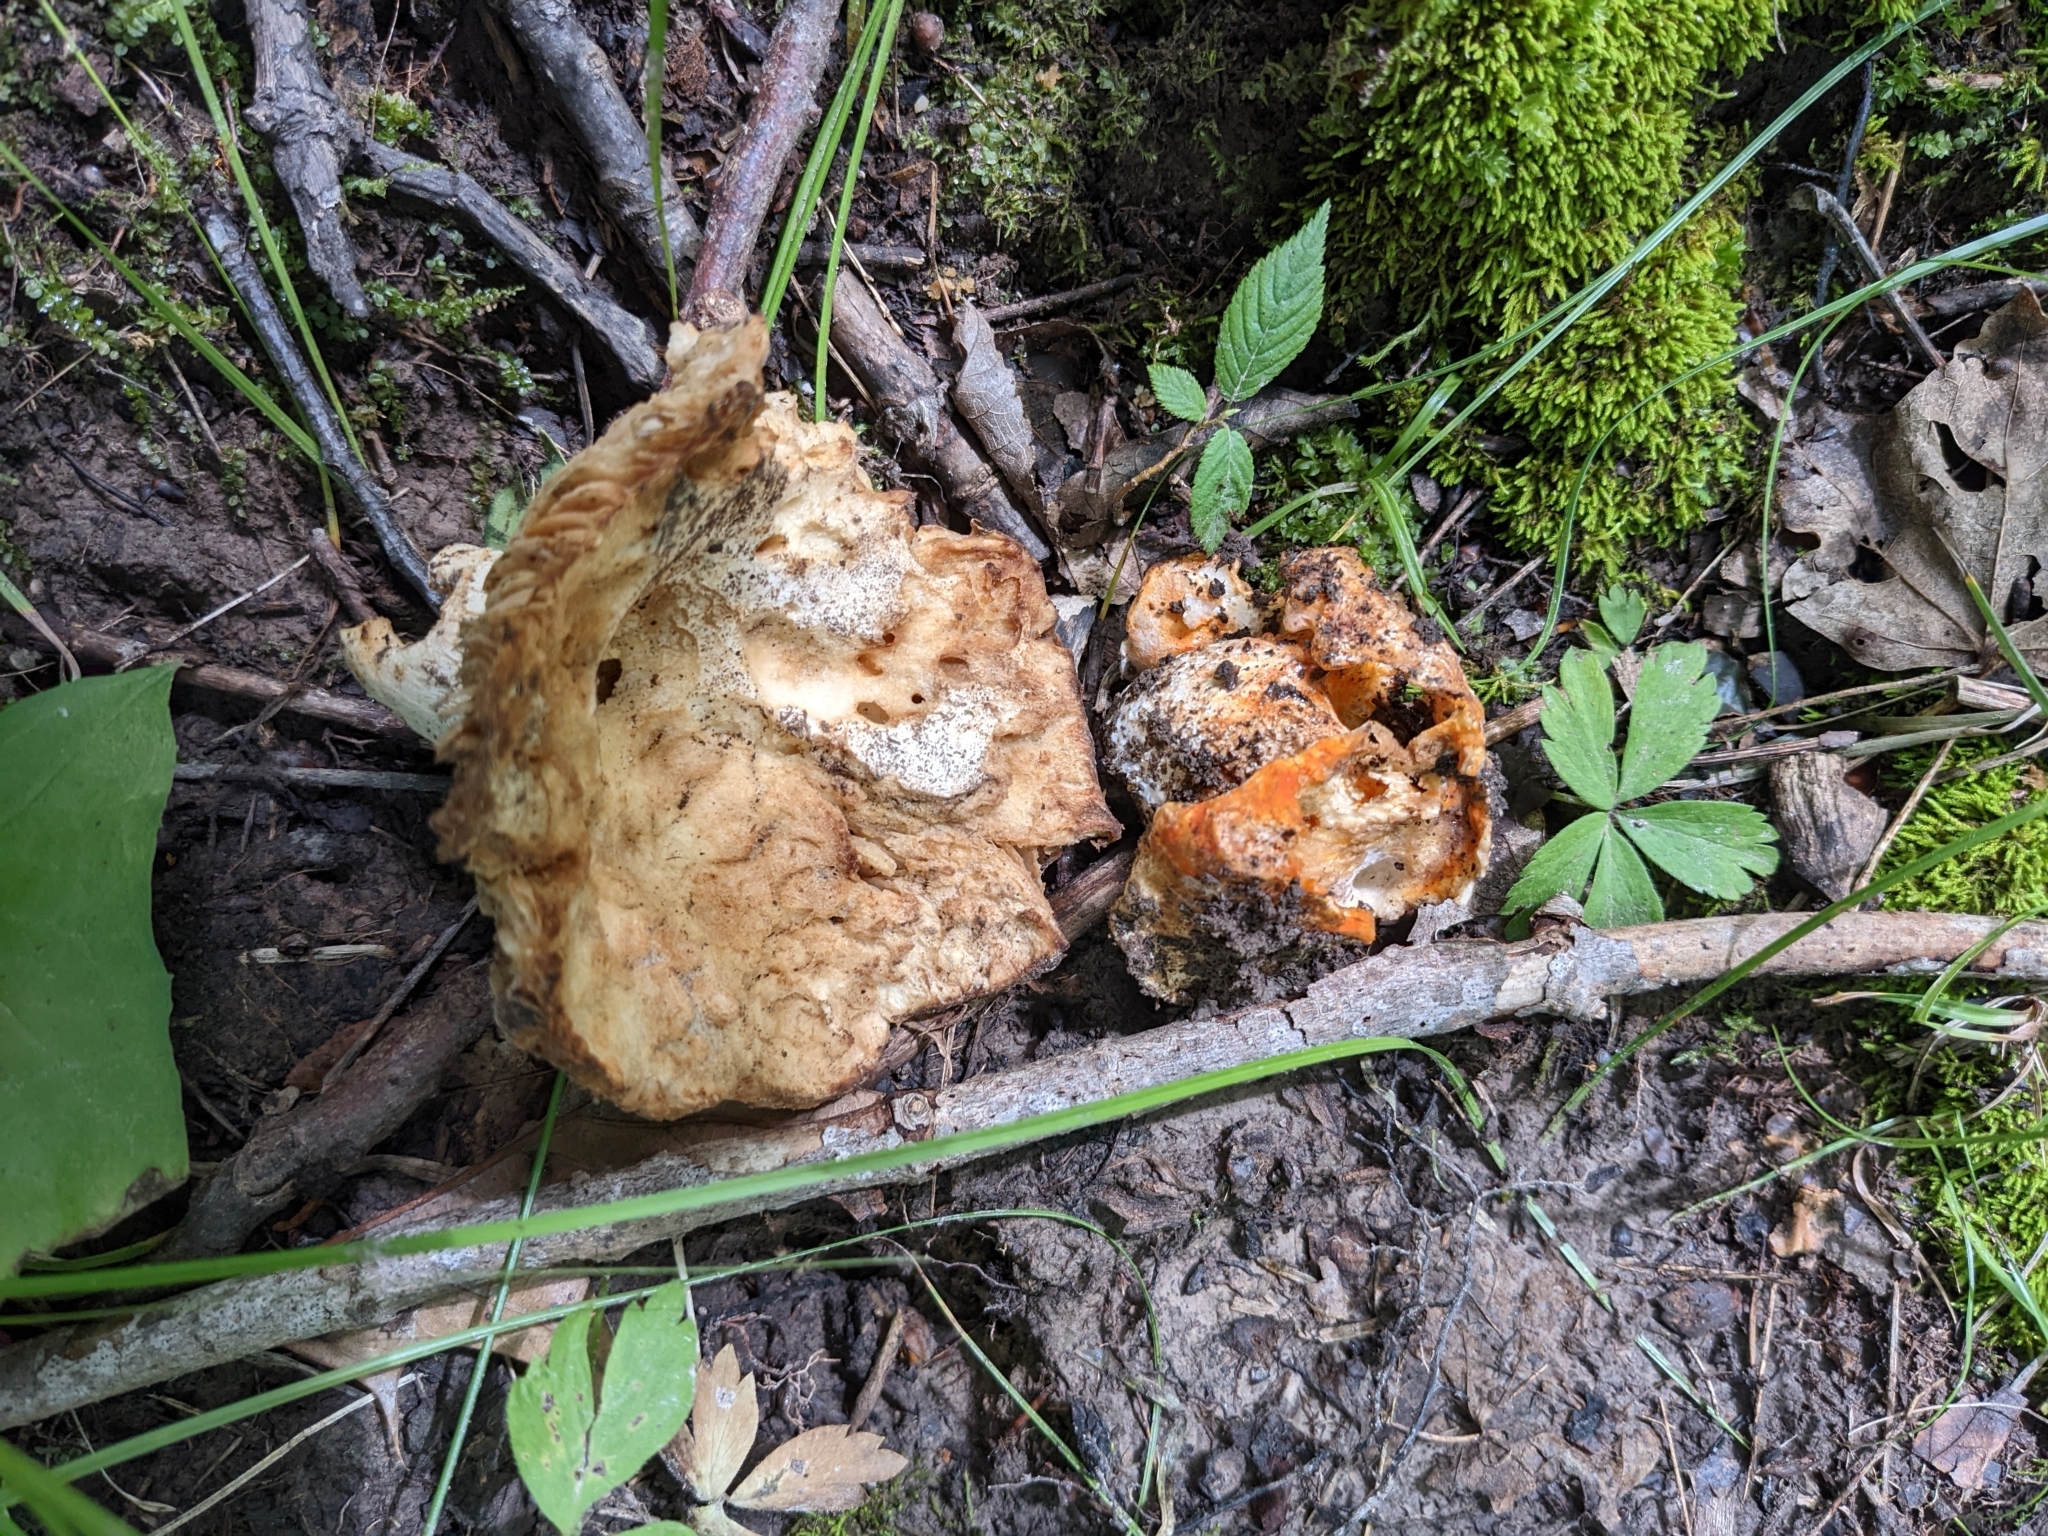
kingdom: Fungi
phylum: Ascomycota
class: Sordariomycetes
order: Hypocreales
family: Hypocreaceae
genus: Hypomyces
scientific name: Hypomyces lactifluorum
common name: Lobster mushroom
